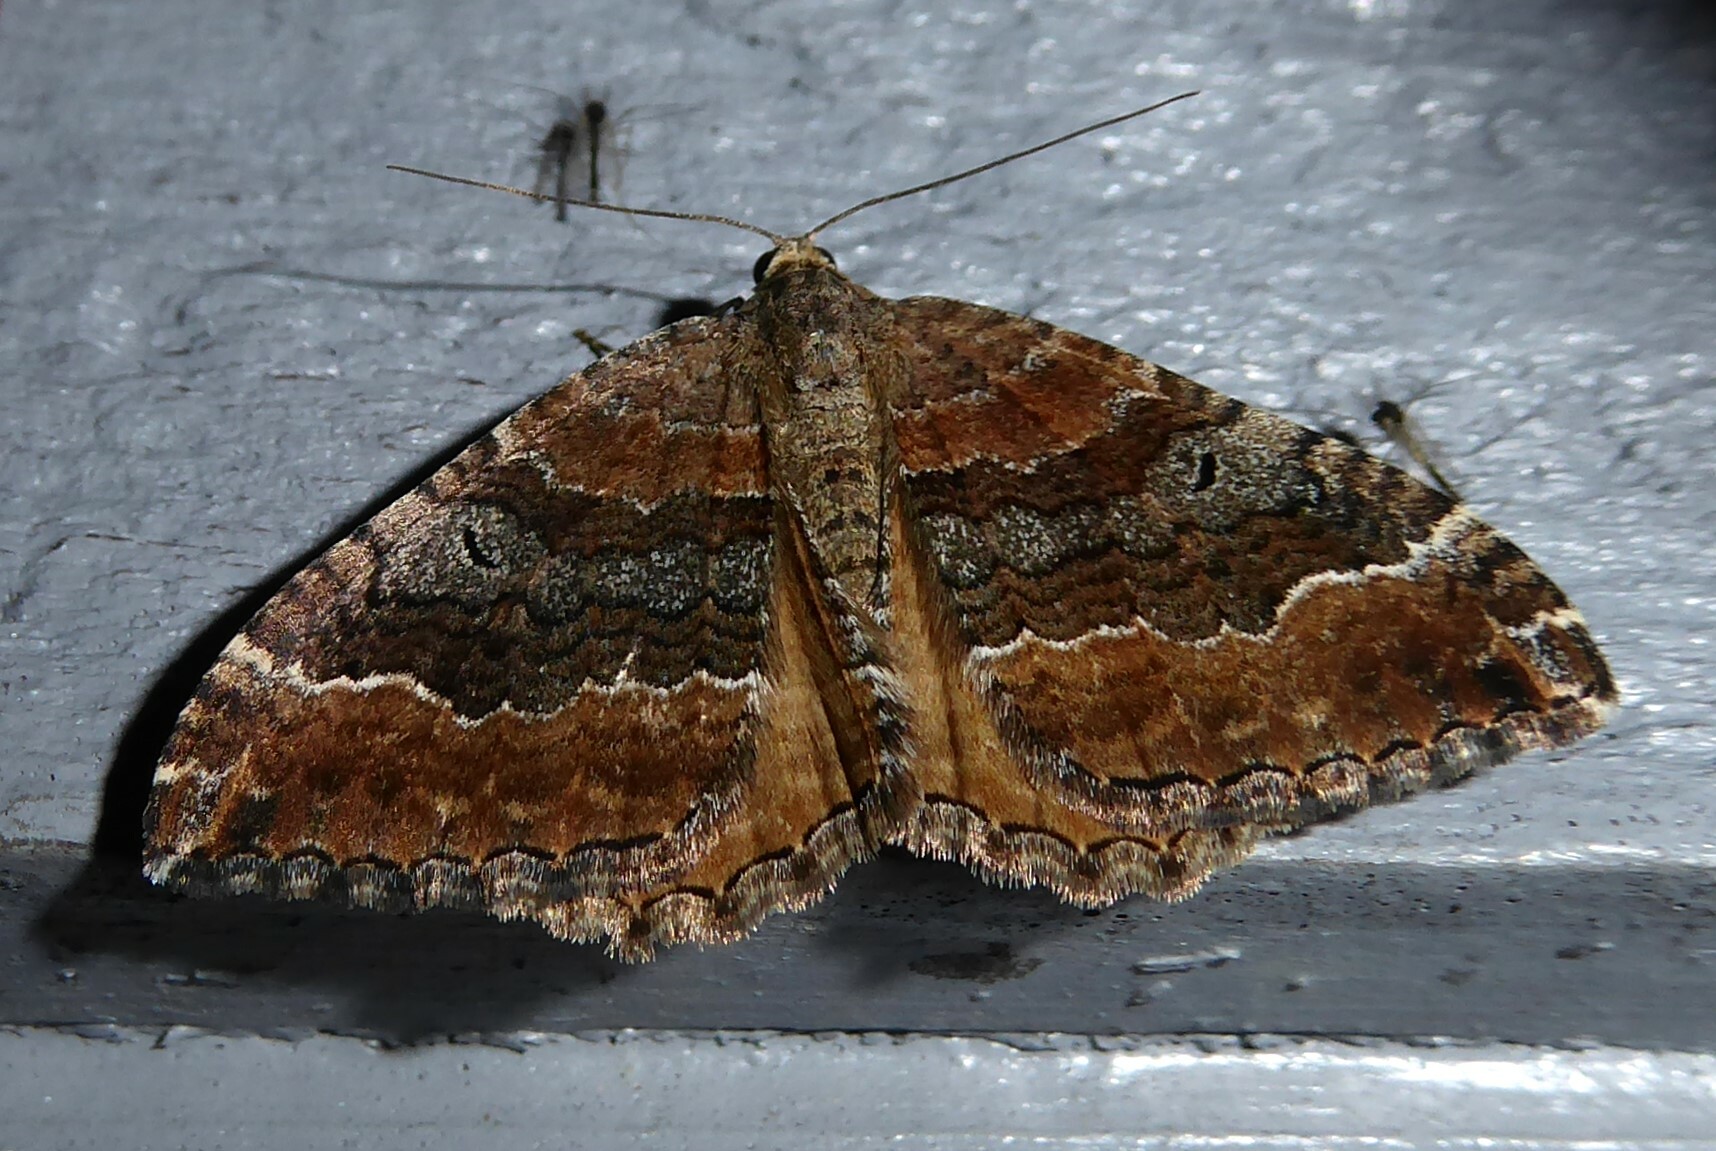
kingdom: Animalia
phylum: Arthropoda
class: Insecta
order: Lepidoptera
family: Geometridae
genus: Hydriomena
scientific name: Hydriomena deltoidata
